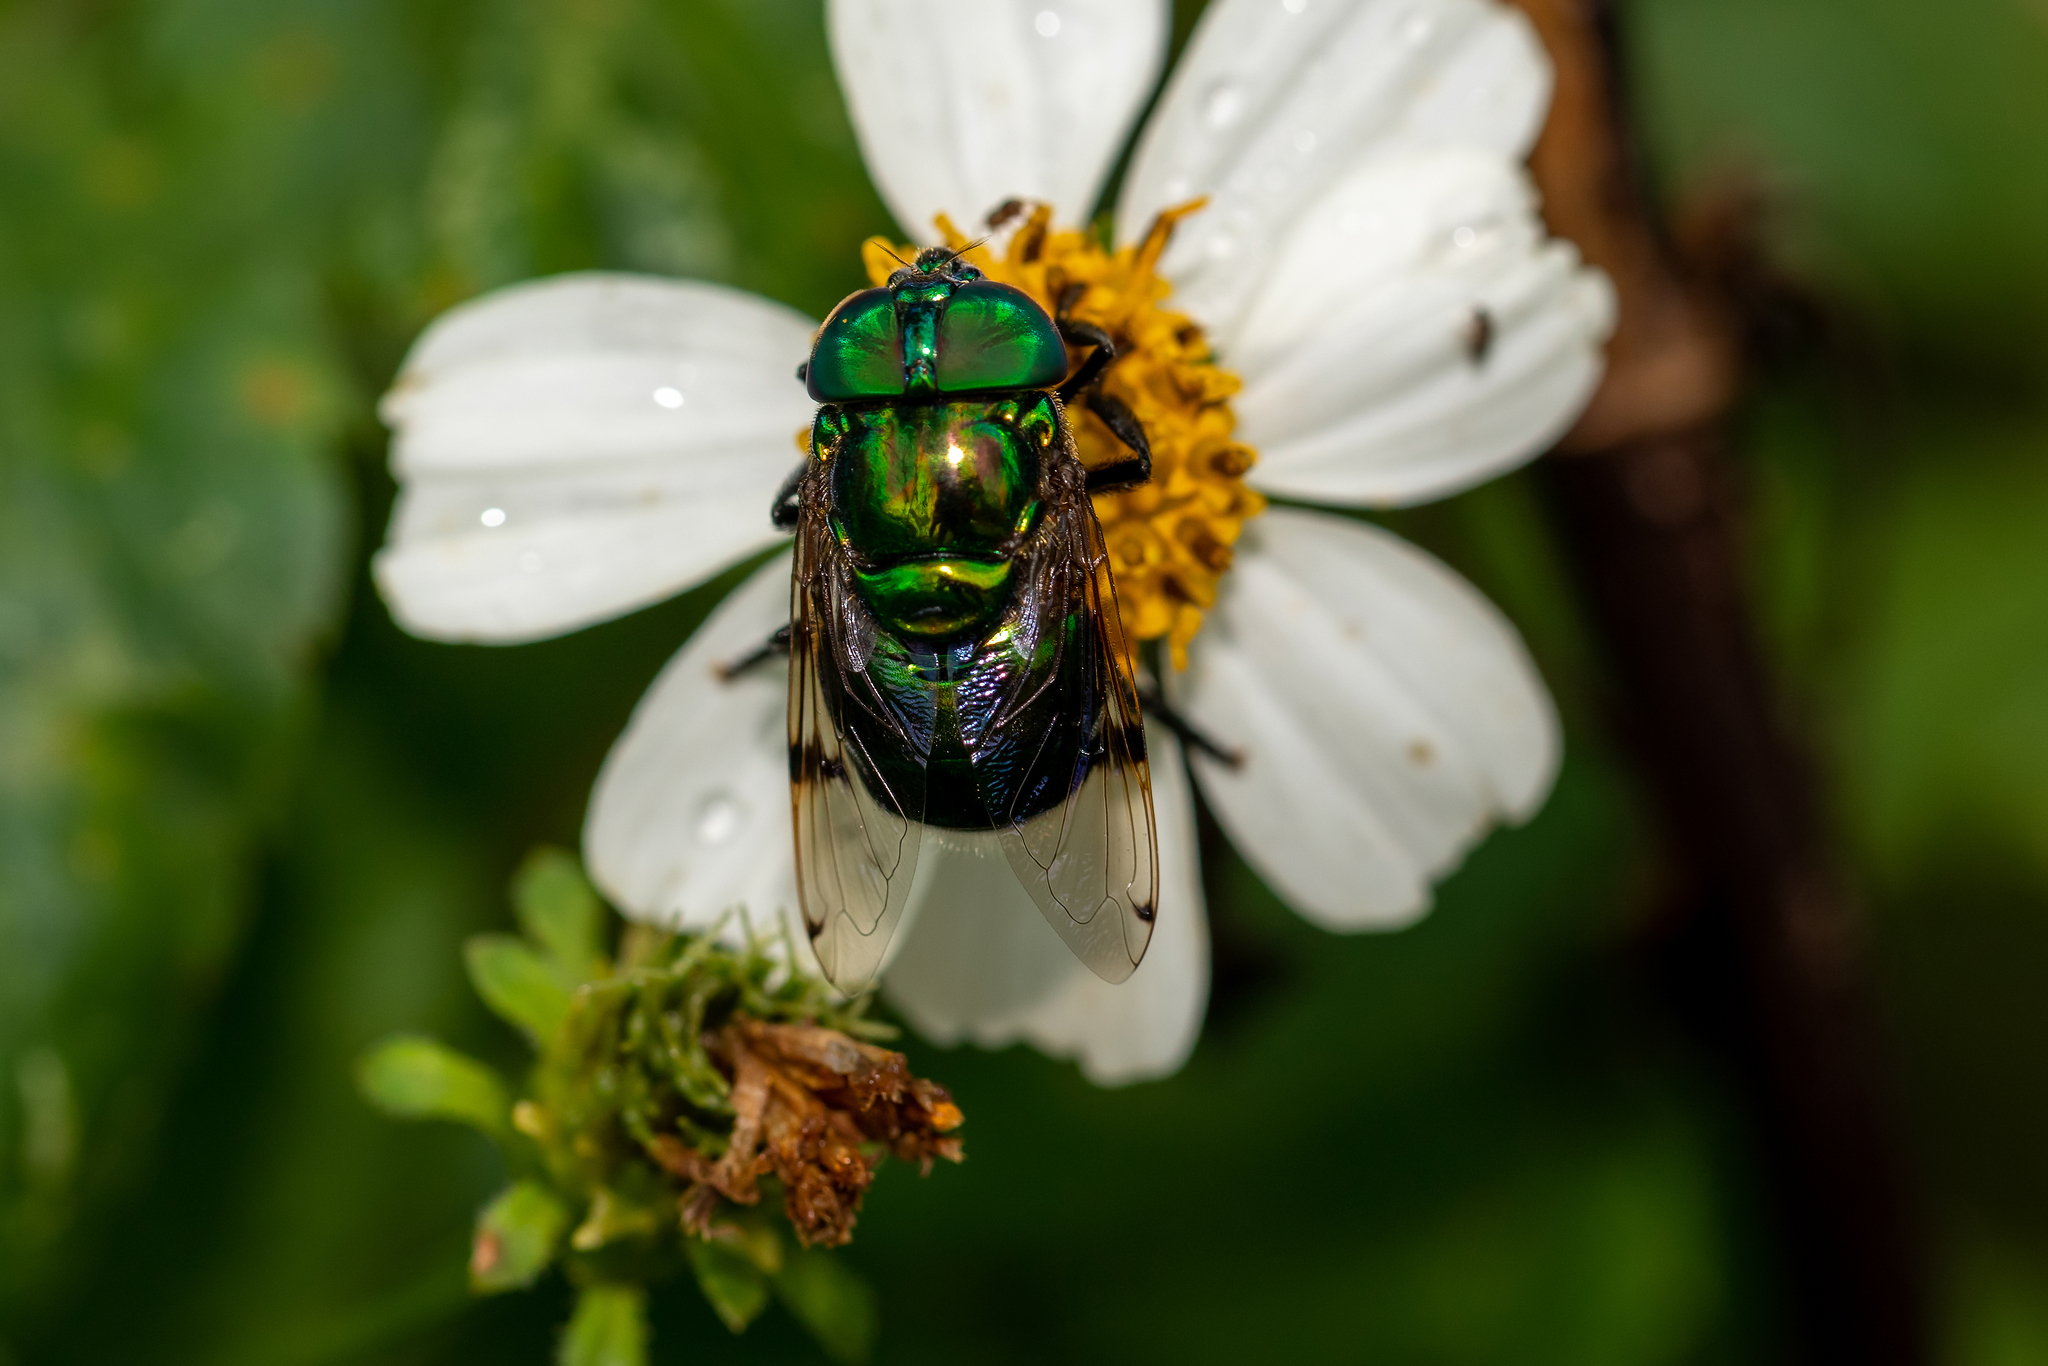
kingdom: Animalia
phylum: Arthropoda
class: Insecta
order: Diptera
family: Syrphidae
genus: Ornidia
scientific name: Ornidia obesa
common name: Syrphid fly
